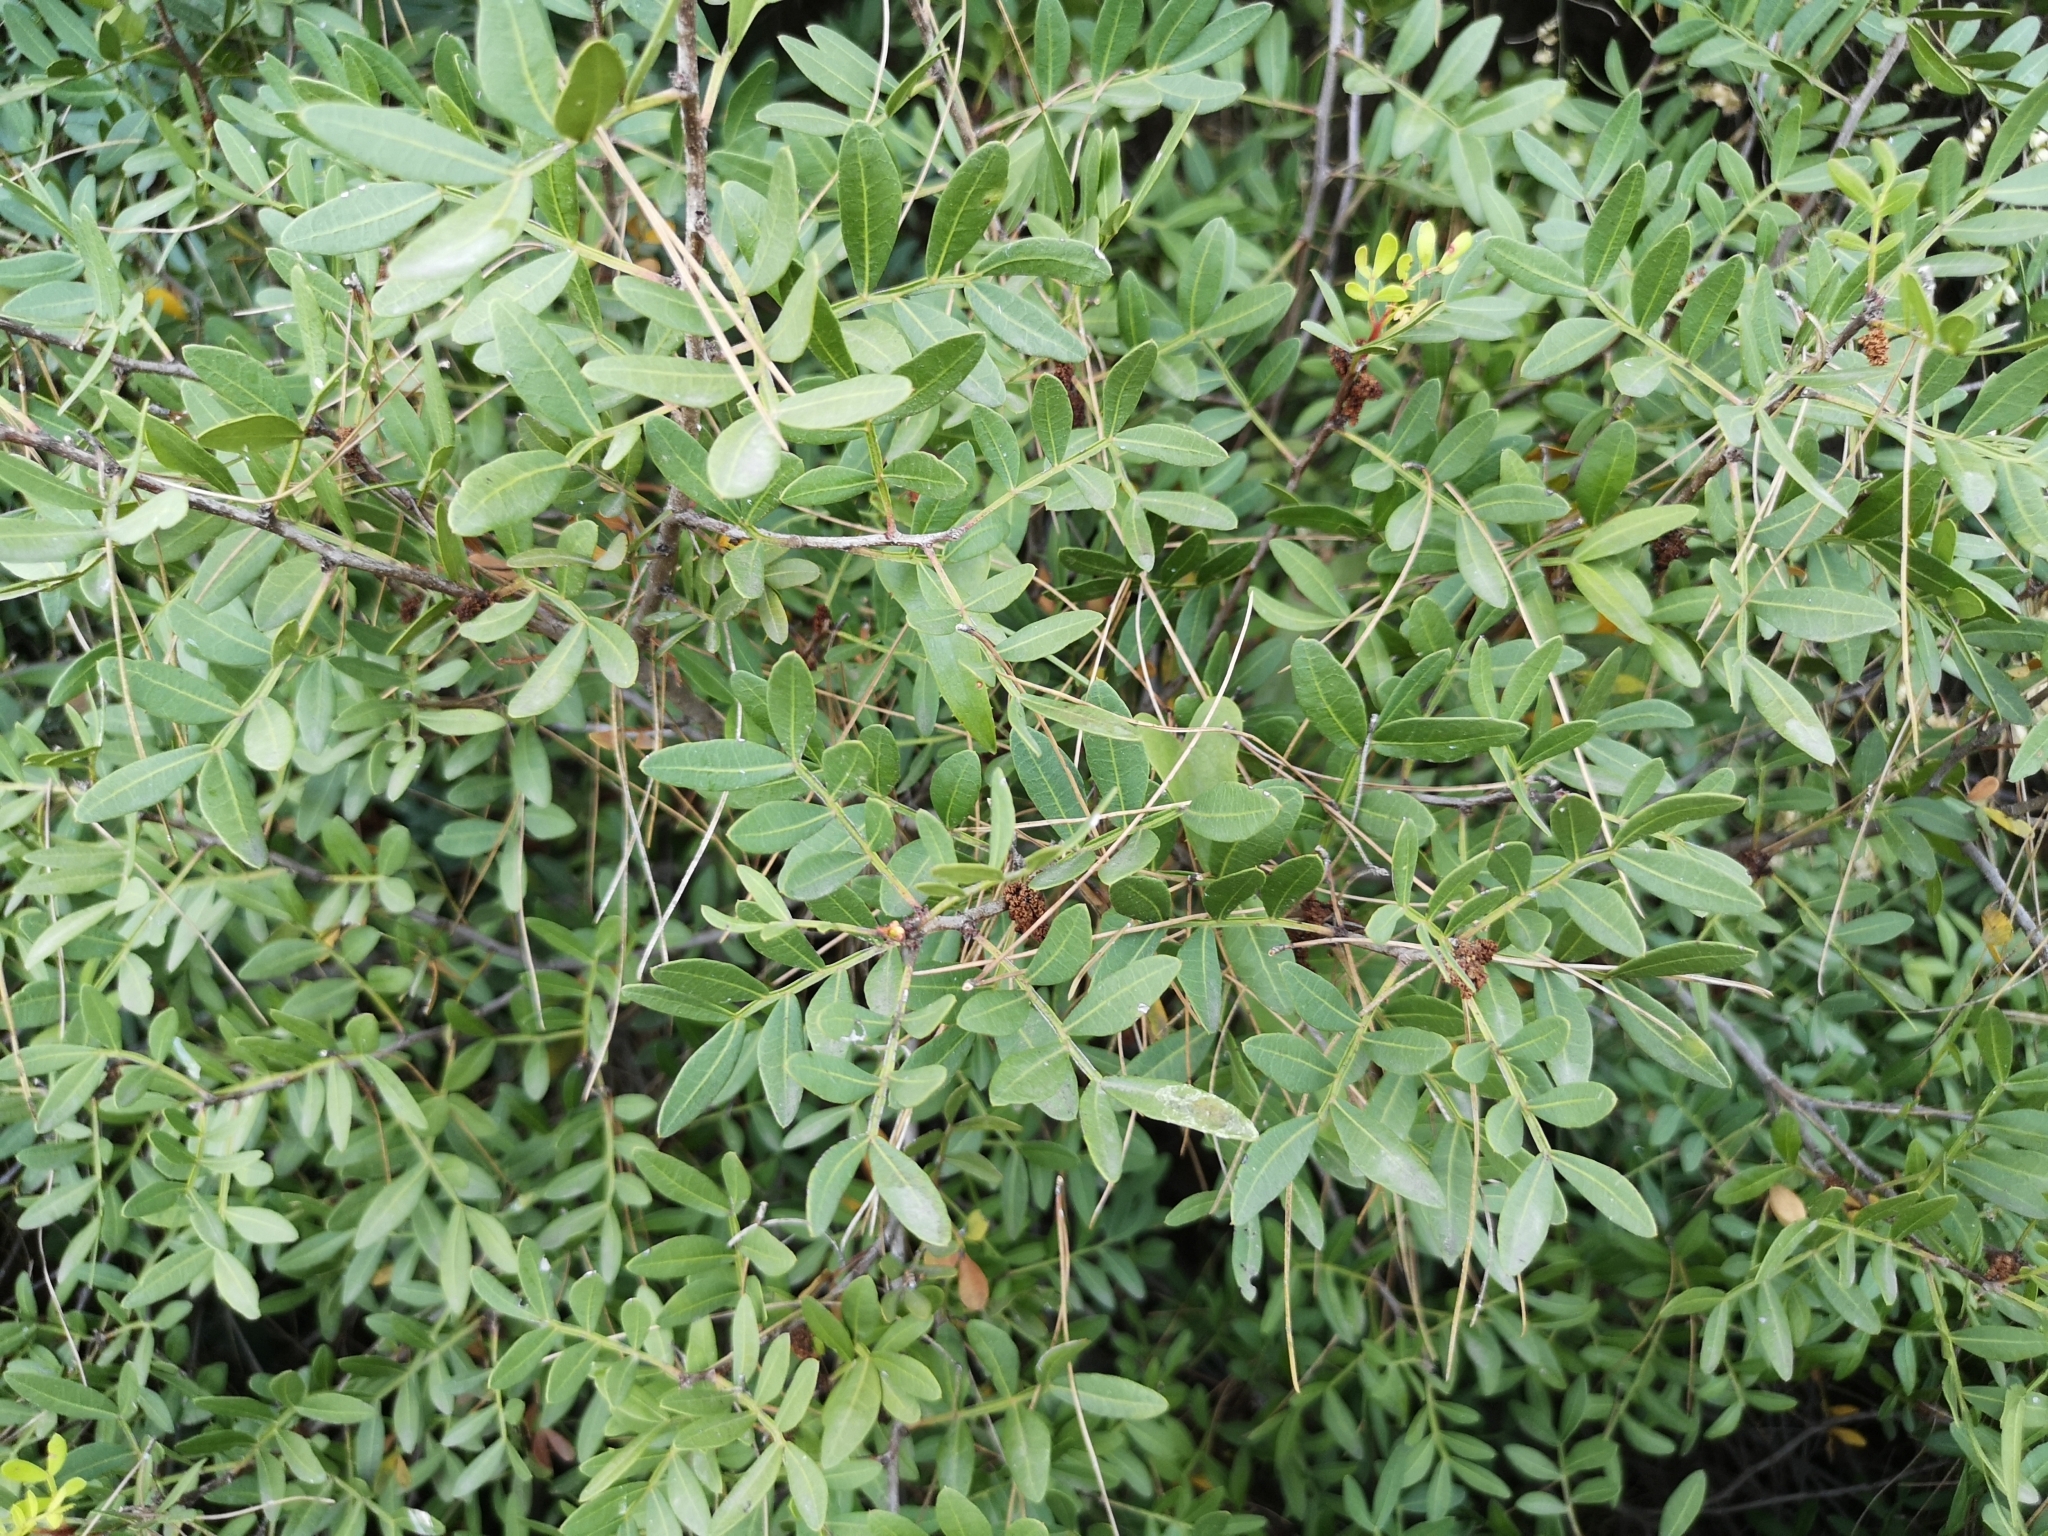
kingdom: Plantae
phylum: Tracheophyta
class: Magnoliopsida
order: Sapindales
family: Anacardiaceae
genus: Pistacia
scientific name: Pistacia lentiscus
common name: Lentisk
